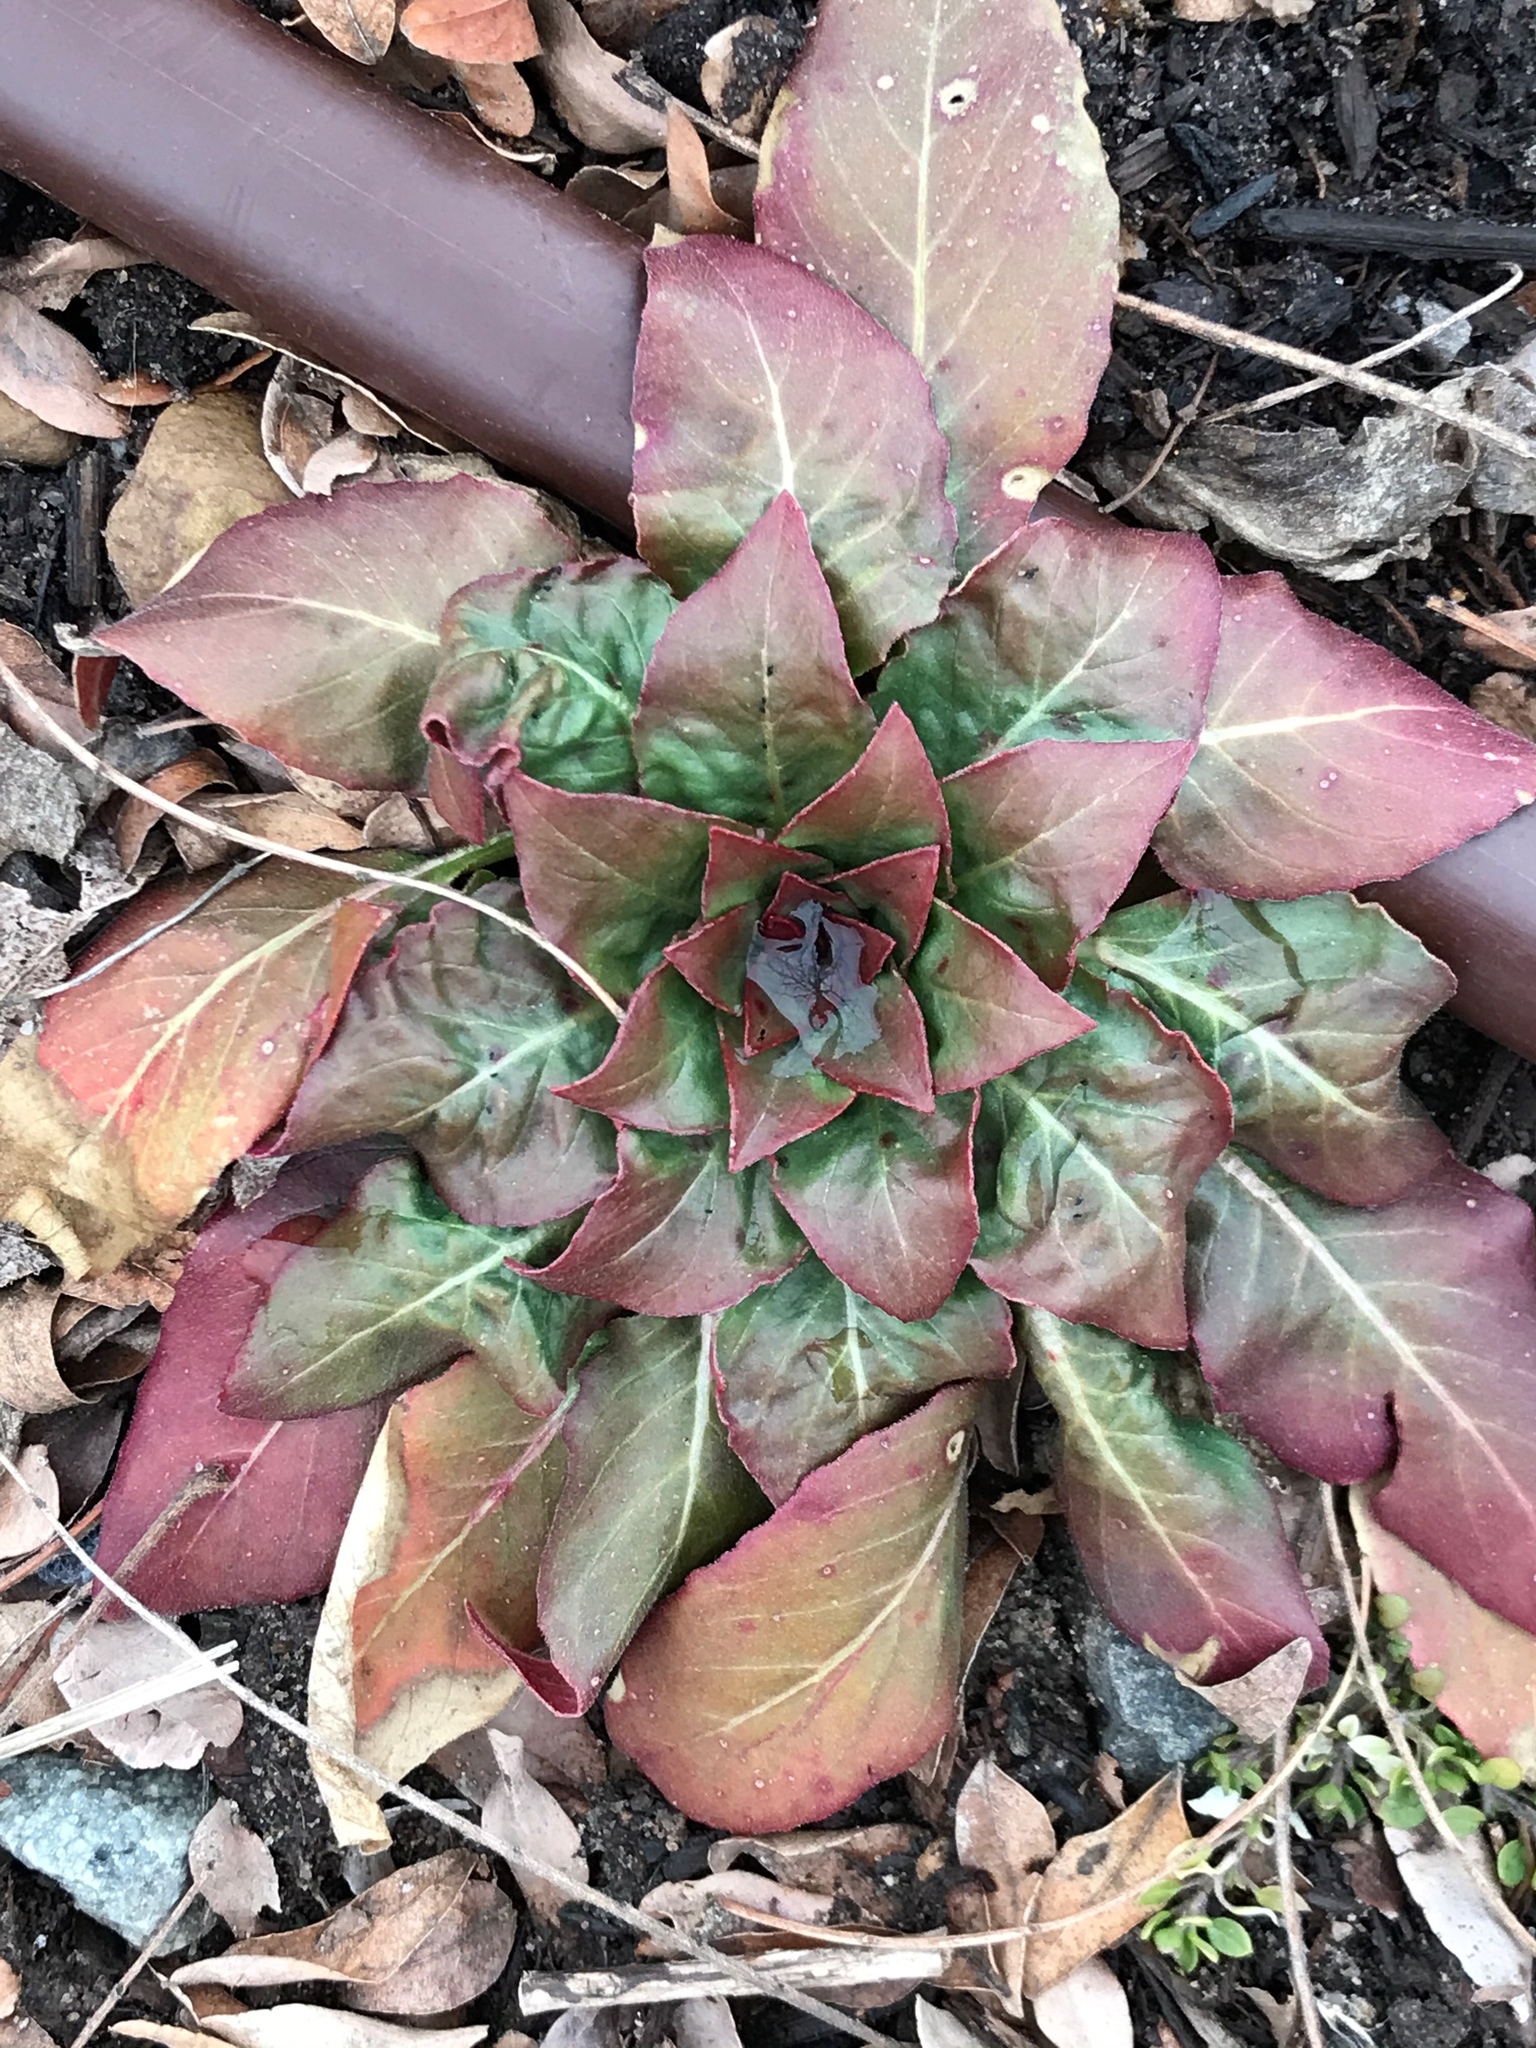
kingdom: Plantae
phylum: Tracheophyta
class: Magnoliopsida
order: Myrtales
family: Onagraceae
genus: Oenothera
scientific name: Oenothera biennis
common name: Common evening-primrose
